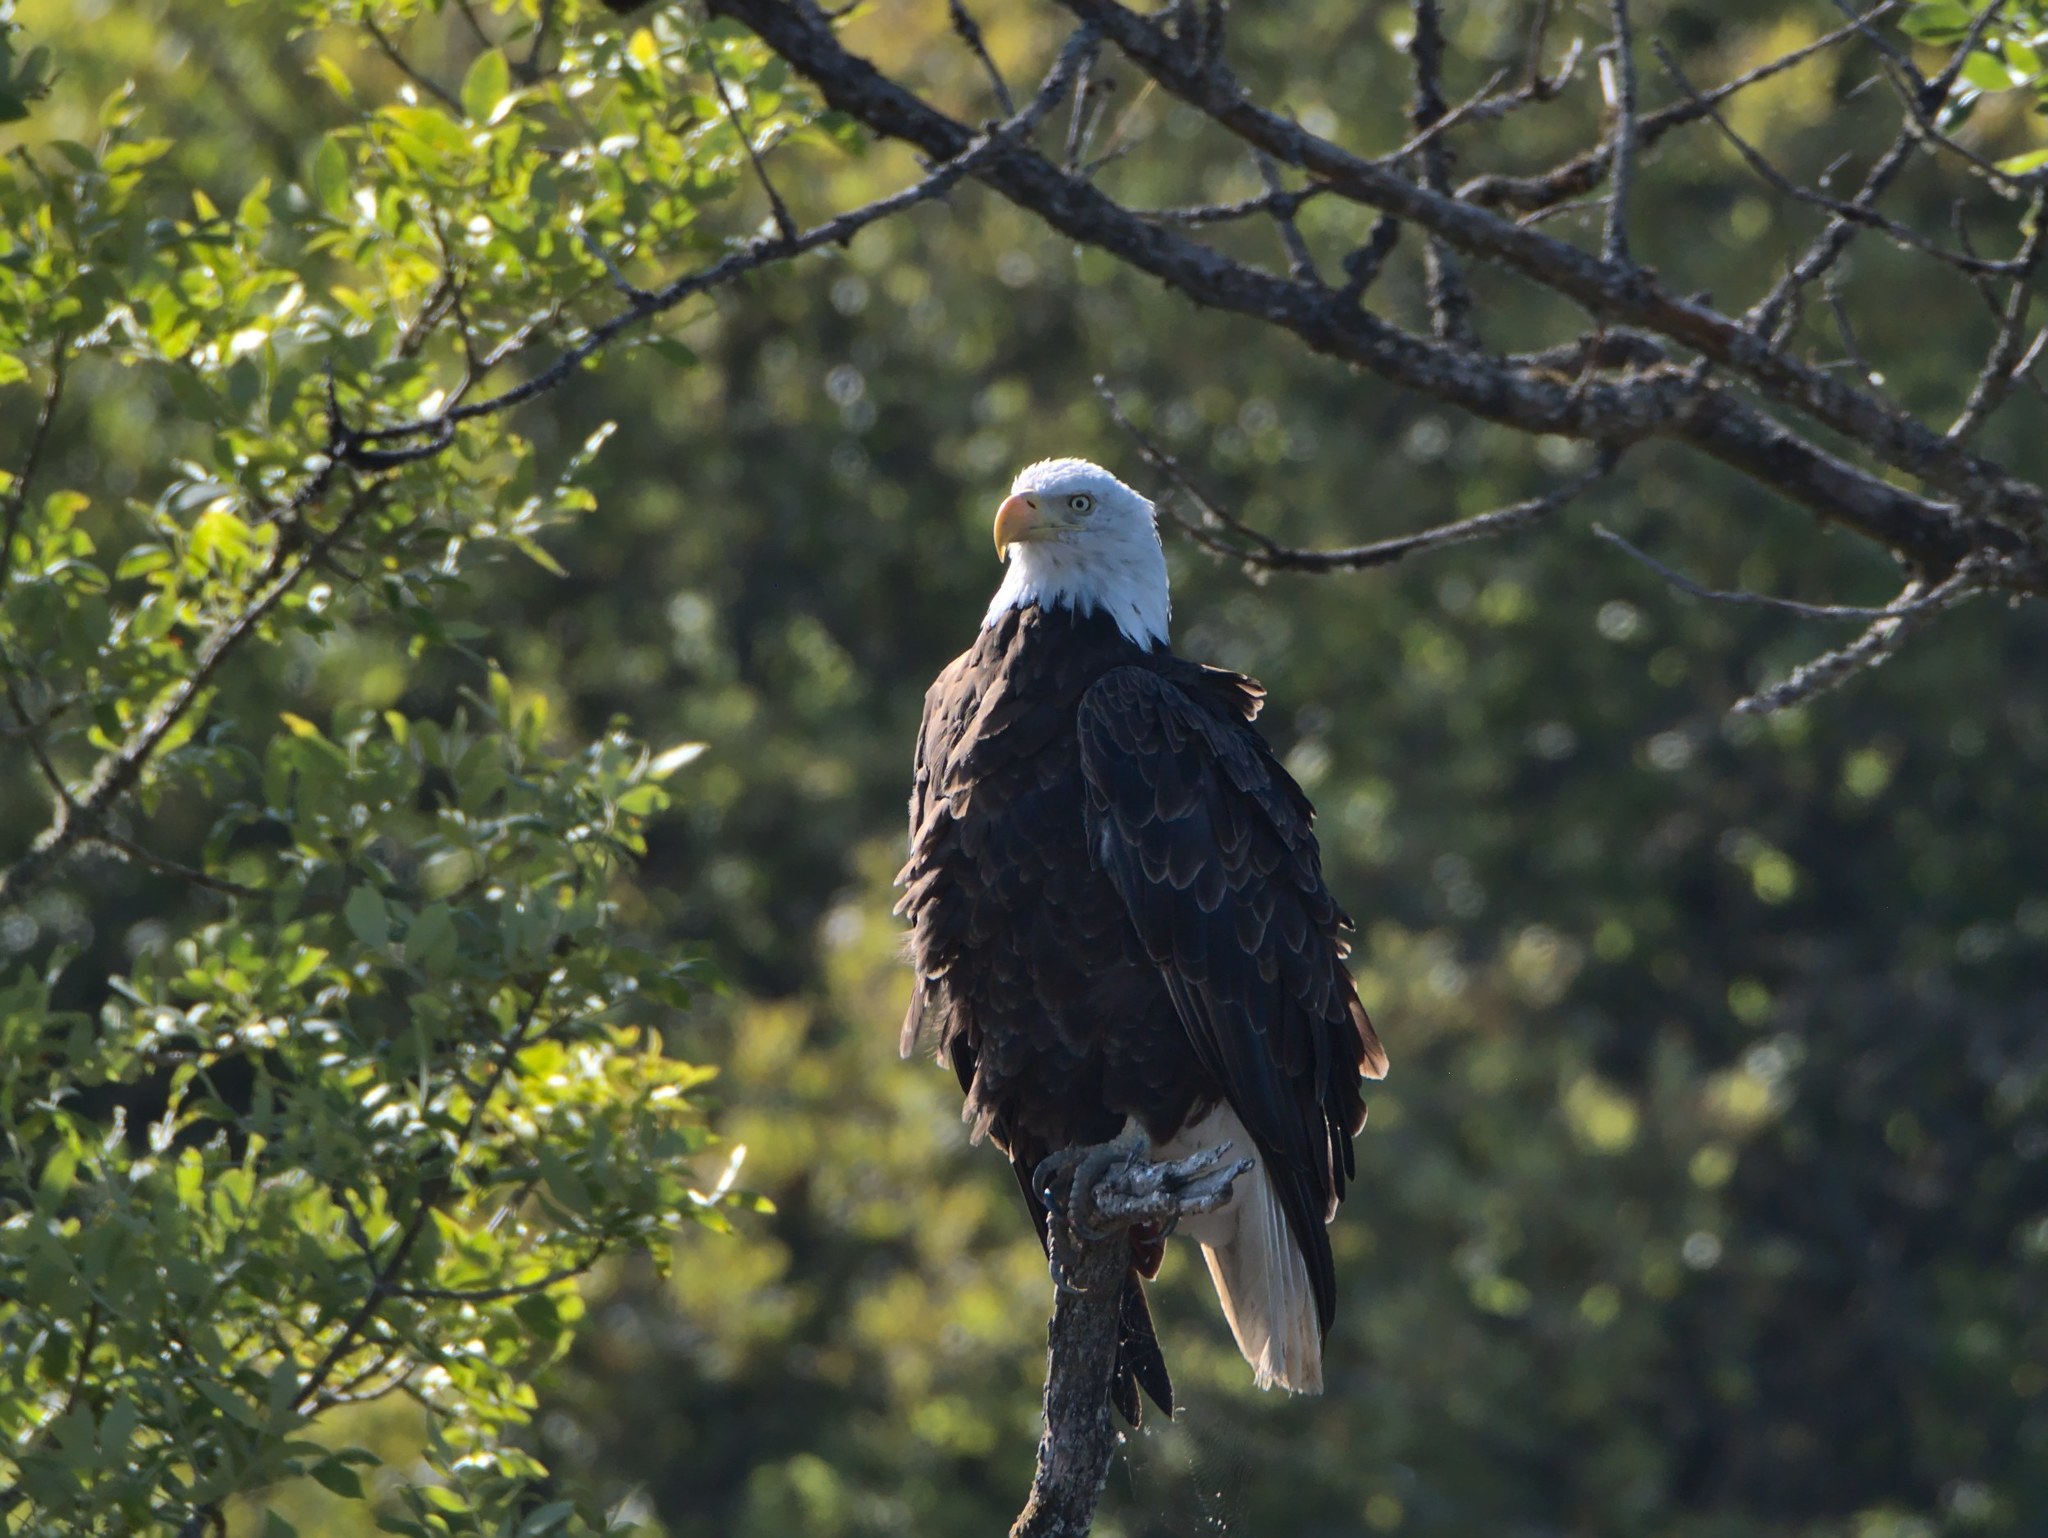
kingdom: Animalia
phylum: Chordata
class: Aves
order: Accipitriformes
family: Accipitridae
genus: Haliaeetus
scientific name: Haliaeetus leucocephalus
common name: Bald eagle
